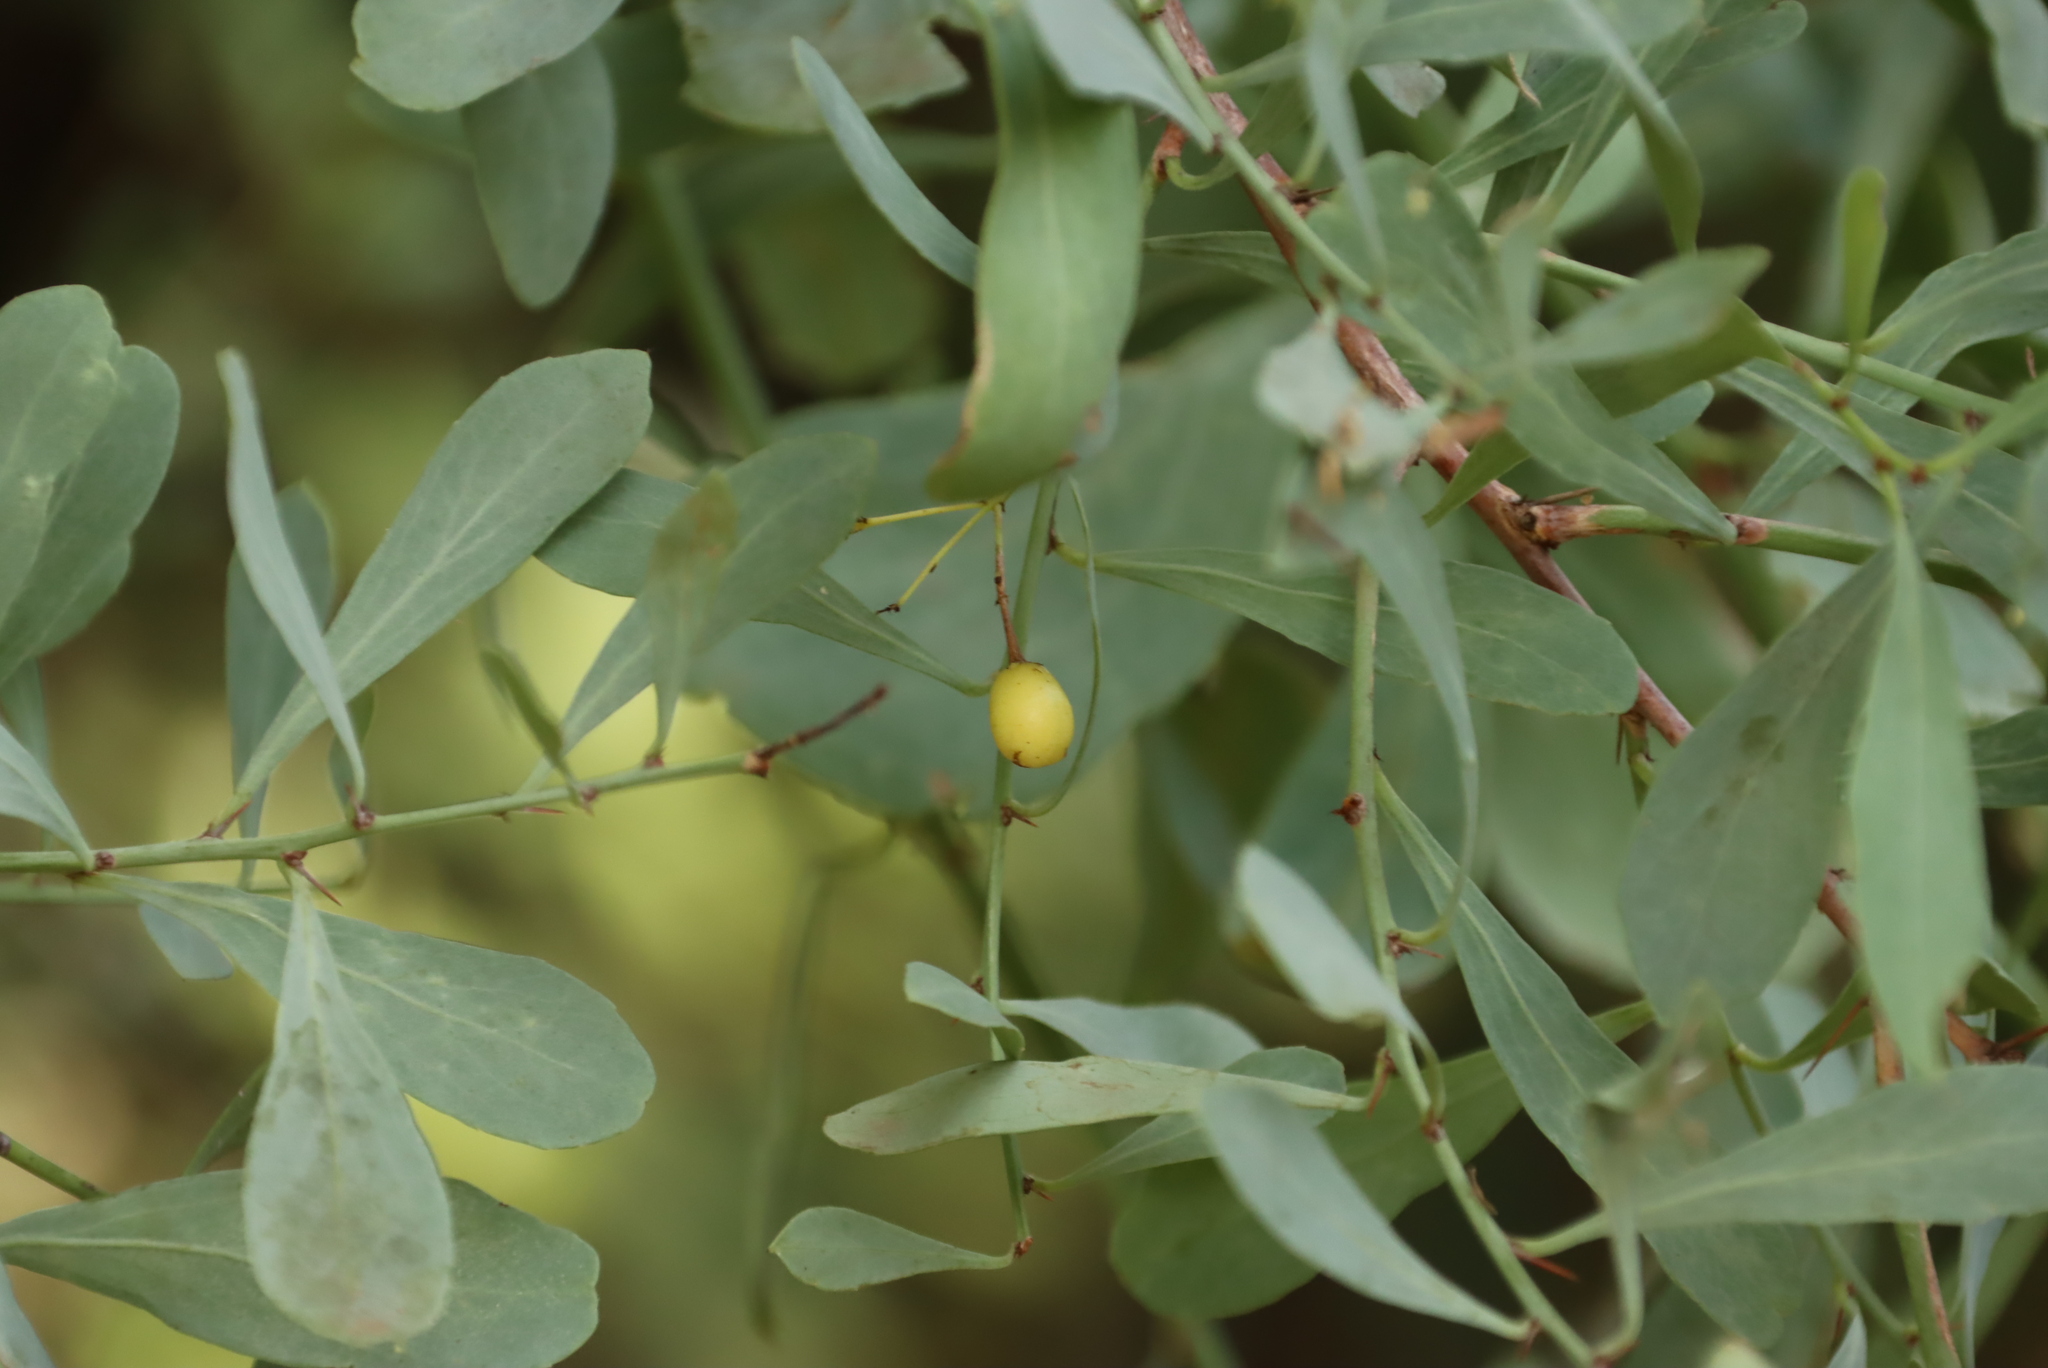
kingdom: Plantae
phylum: Tracheophyta
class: Magnoliopsida
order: Celastrales
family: Celastraceae
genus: Gymnosporia
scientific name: Gymnosporia glaucophylla
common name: Blue spike-thorn
